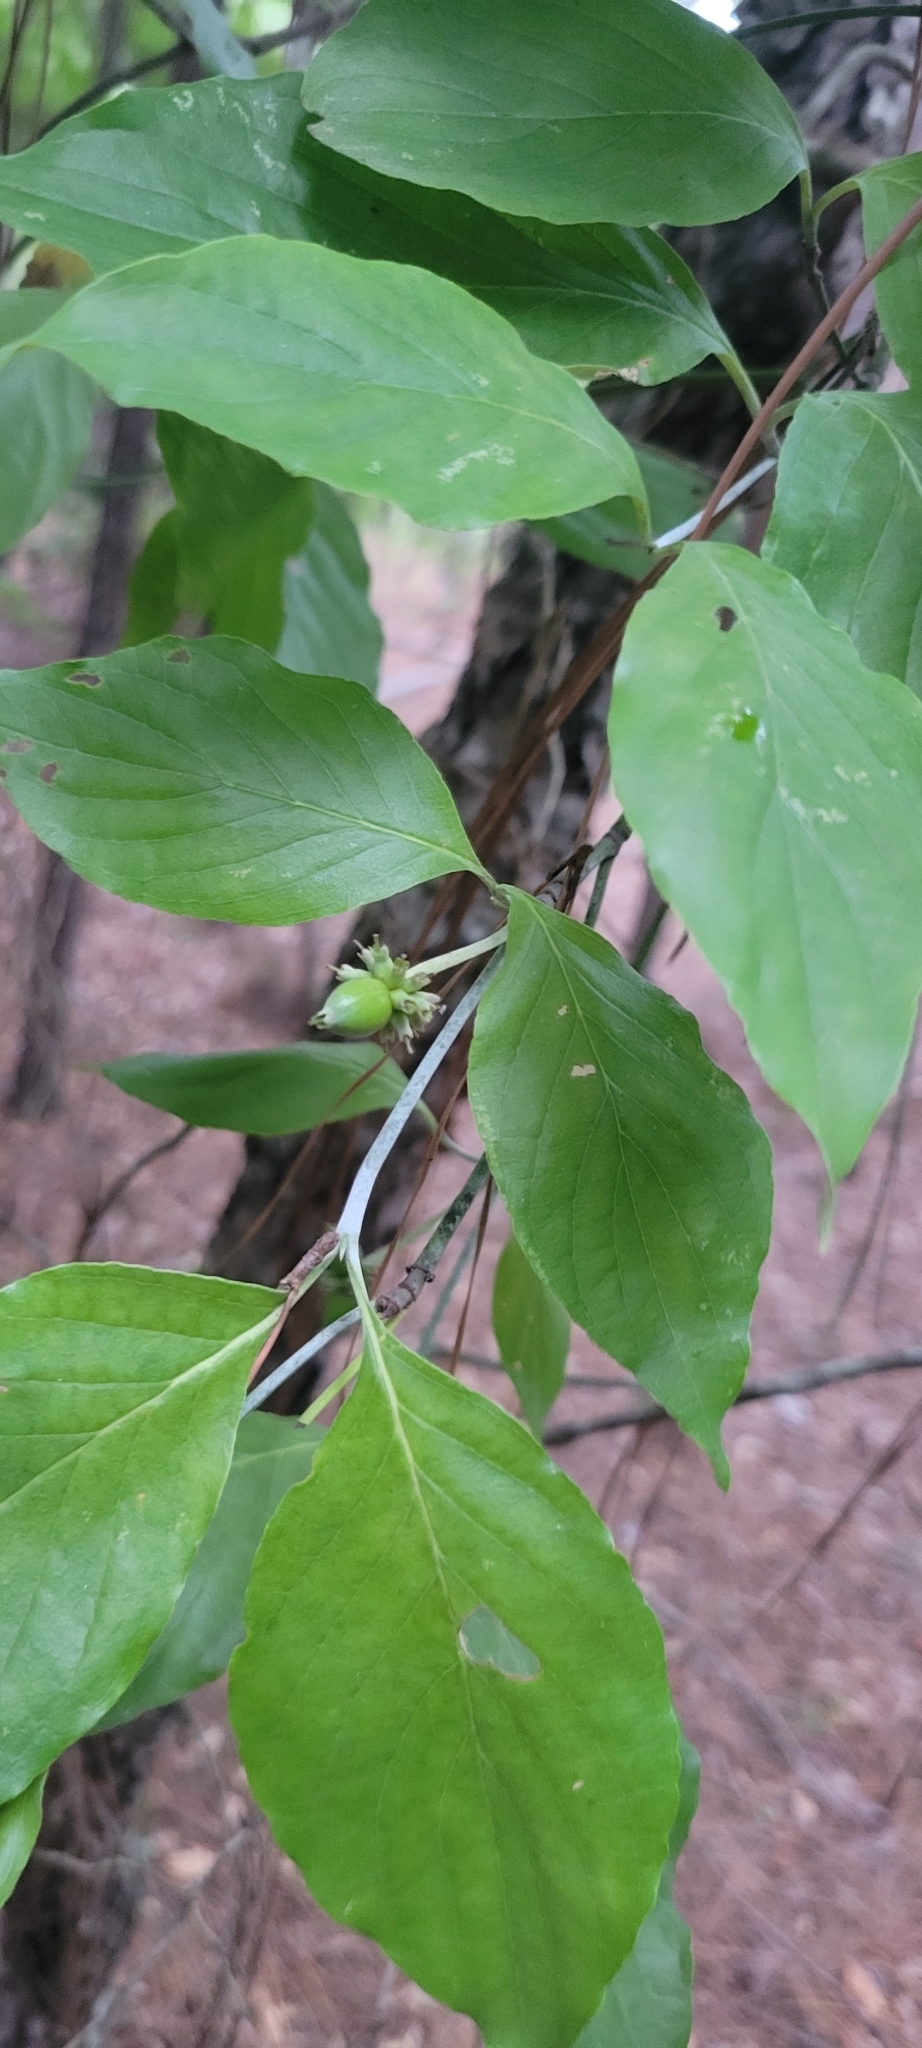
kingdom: Plantae
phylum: Tracheophyta
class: Magnoliopsida
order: Cornales
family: Cornaceae
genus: Cornus
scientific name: Cornus florida
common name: Flowering dogwood
